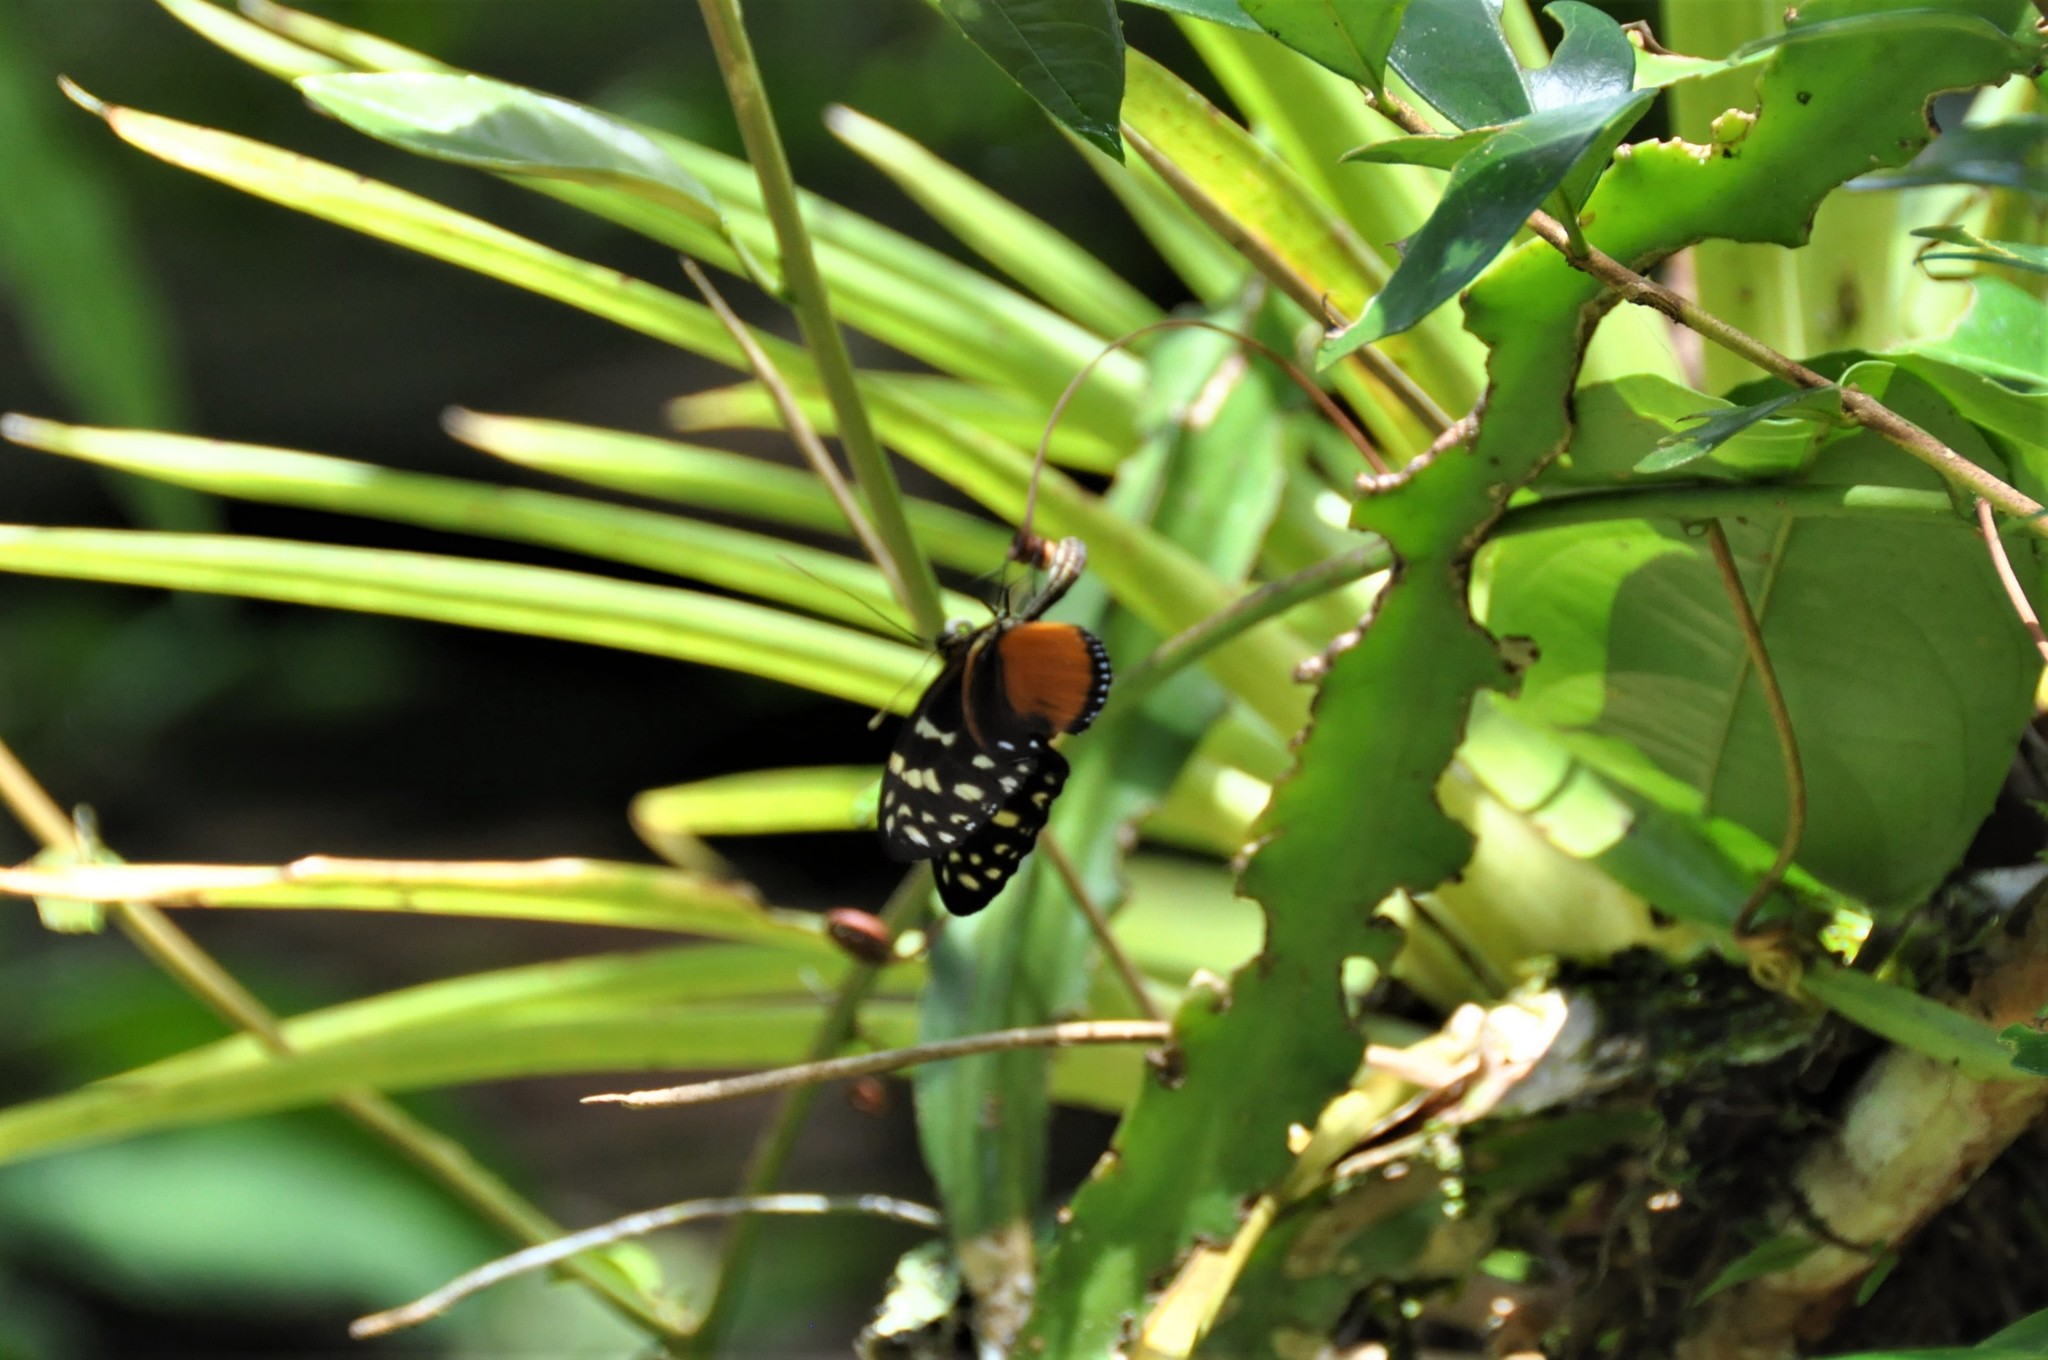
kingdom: Animalia
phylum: Arthropoda
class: Insecta
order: Lepidoptera
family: Nymphalidae
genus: Heliconius
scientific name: Heliconius hecale
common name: Tiger longwing
